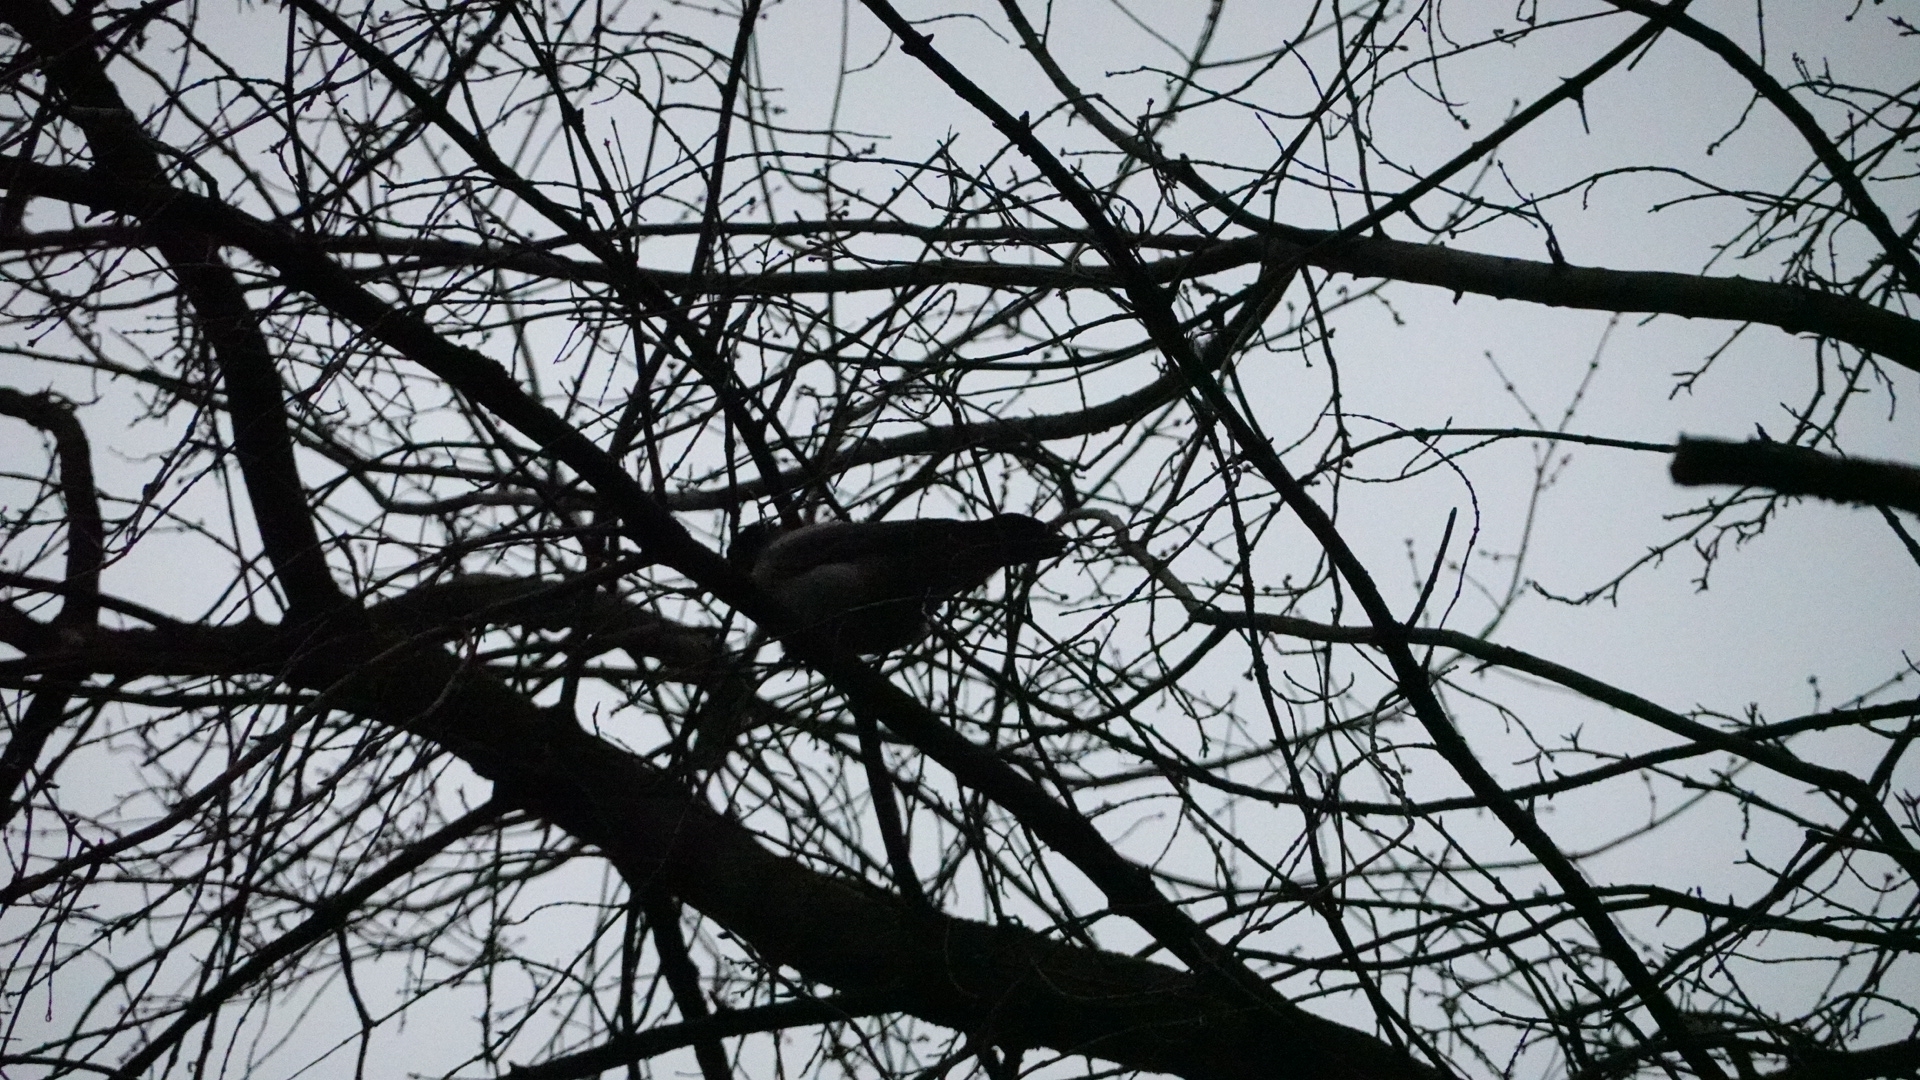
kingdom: Animalia
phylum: Chordata
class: Aves
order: Passeriformes
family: Corvidae
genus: Corvus
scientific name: Corvus cornix
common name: Hooded crow
